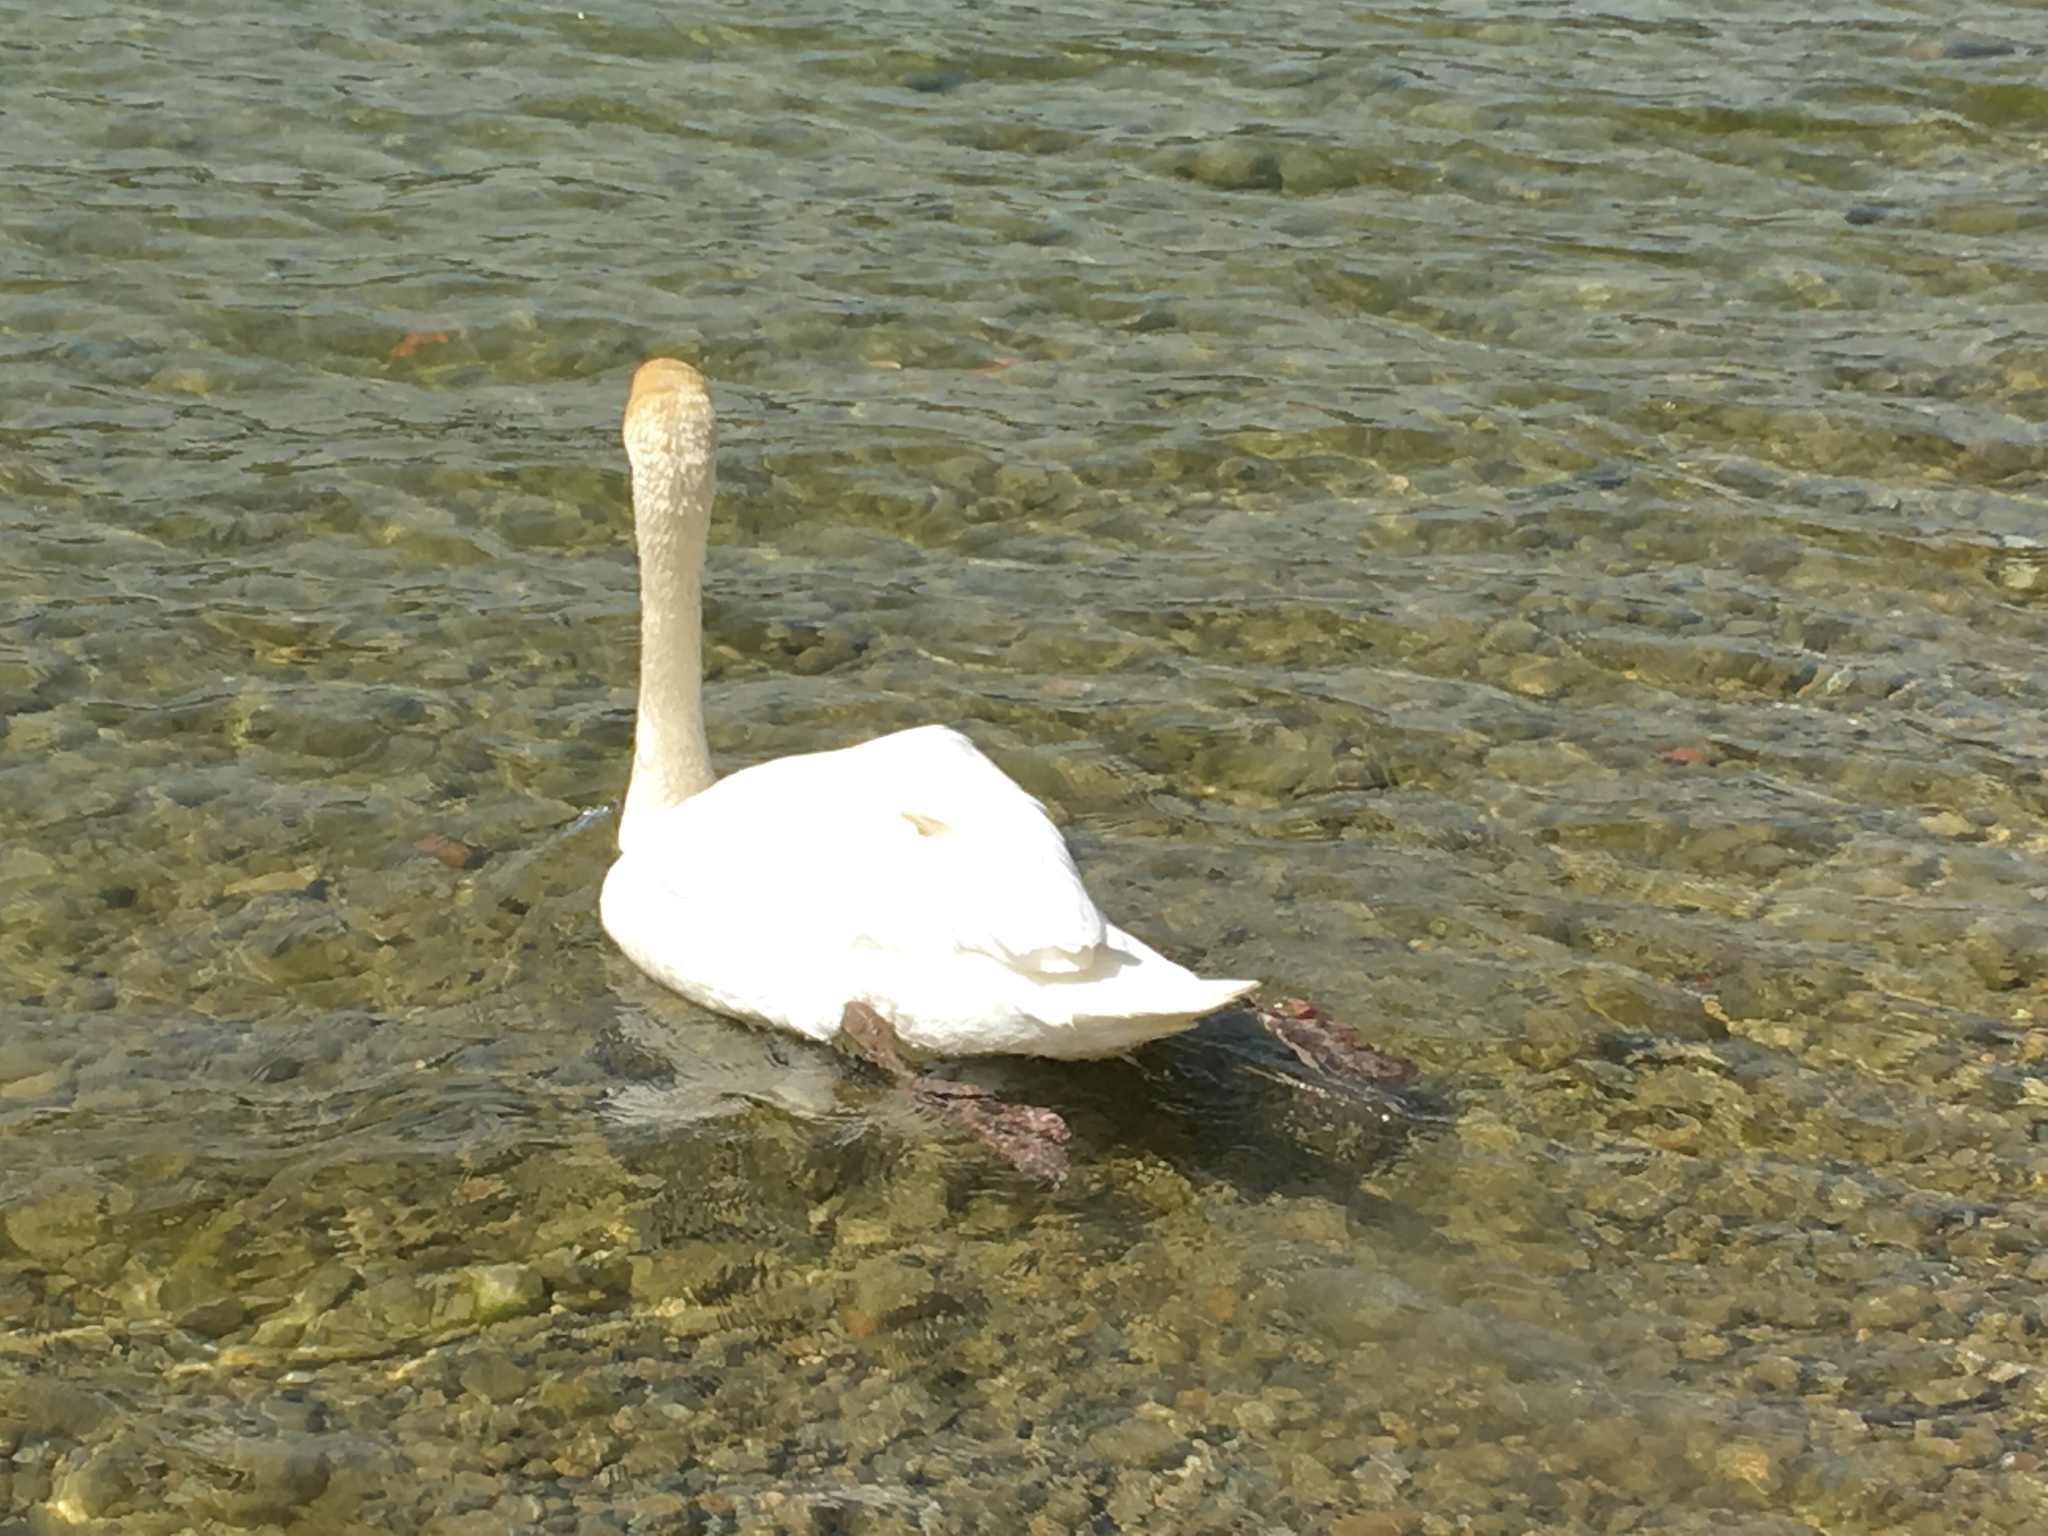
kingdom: Animalia
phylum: Chordata
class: Aves
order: Anseriformes
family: Anatidae
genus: Cygnus
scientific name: Cygnus olor
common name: Mute swan
